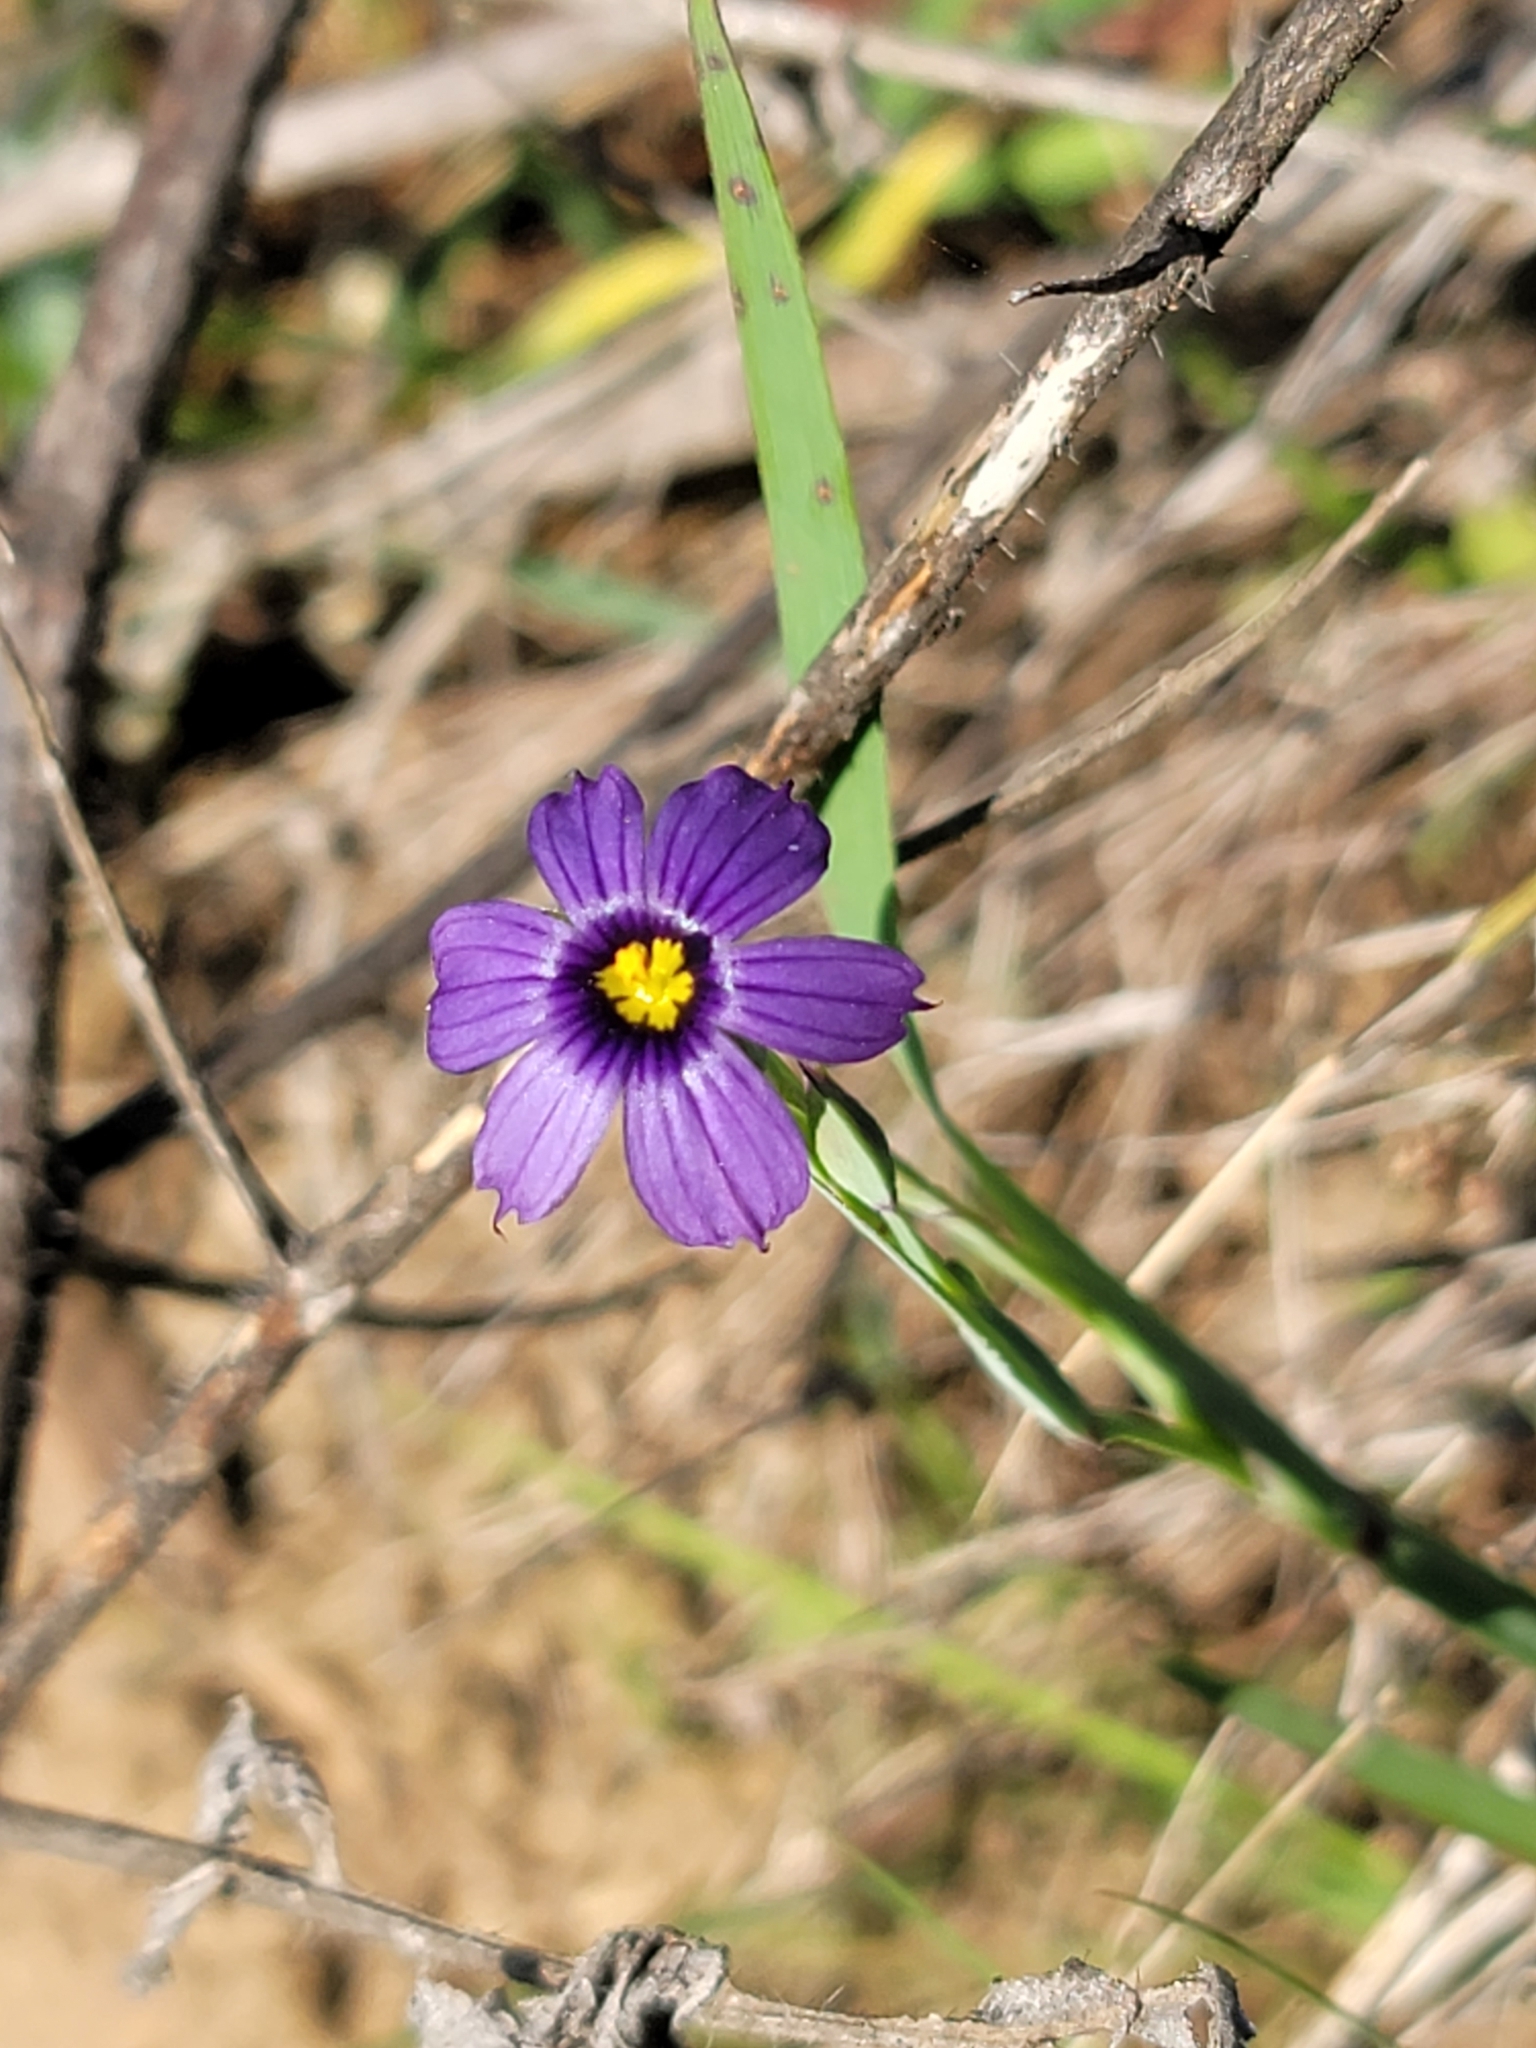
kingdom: Plantae
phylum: Tracheophyta
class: Liliopsida
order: Asparagales
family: Iridaceae
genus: Sisyrinchium
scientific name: Sisyrinchium bellum
